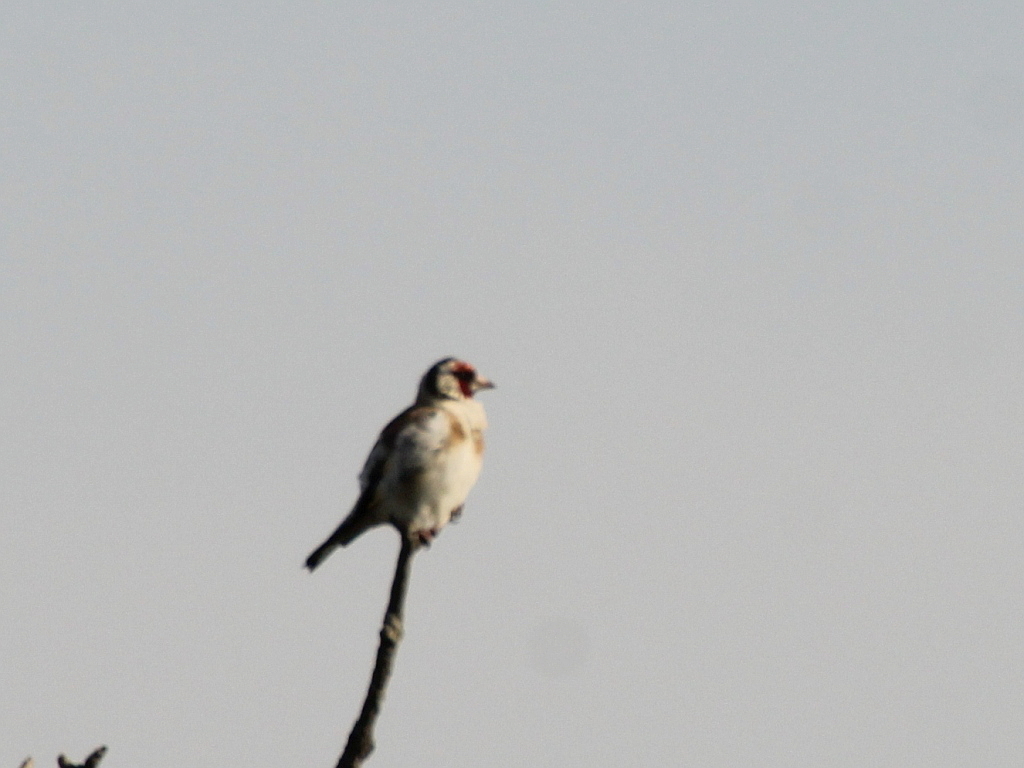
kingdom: Animalia
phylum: Chordata
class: Aves
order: Passeriformes
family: Fringillidae
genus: Carduelis
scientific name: Carduelis carduelis
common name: European goldfinch
